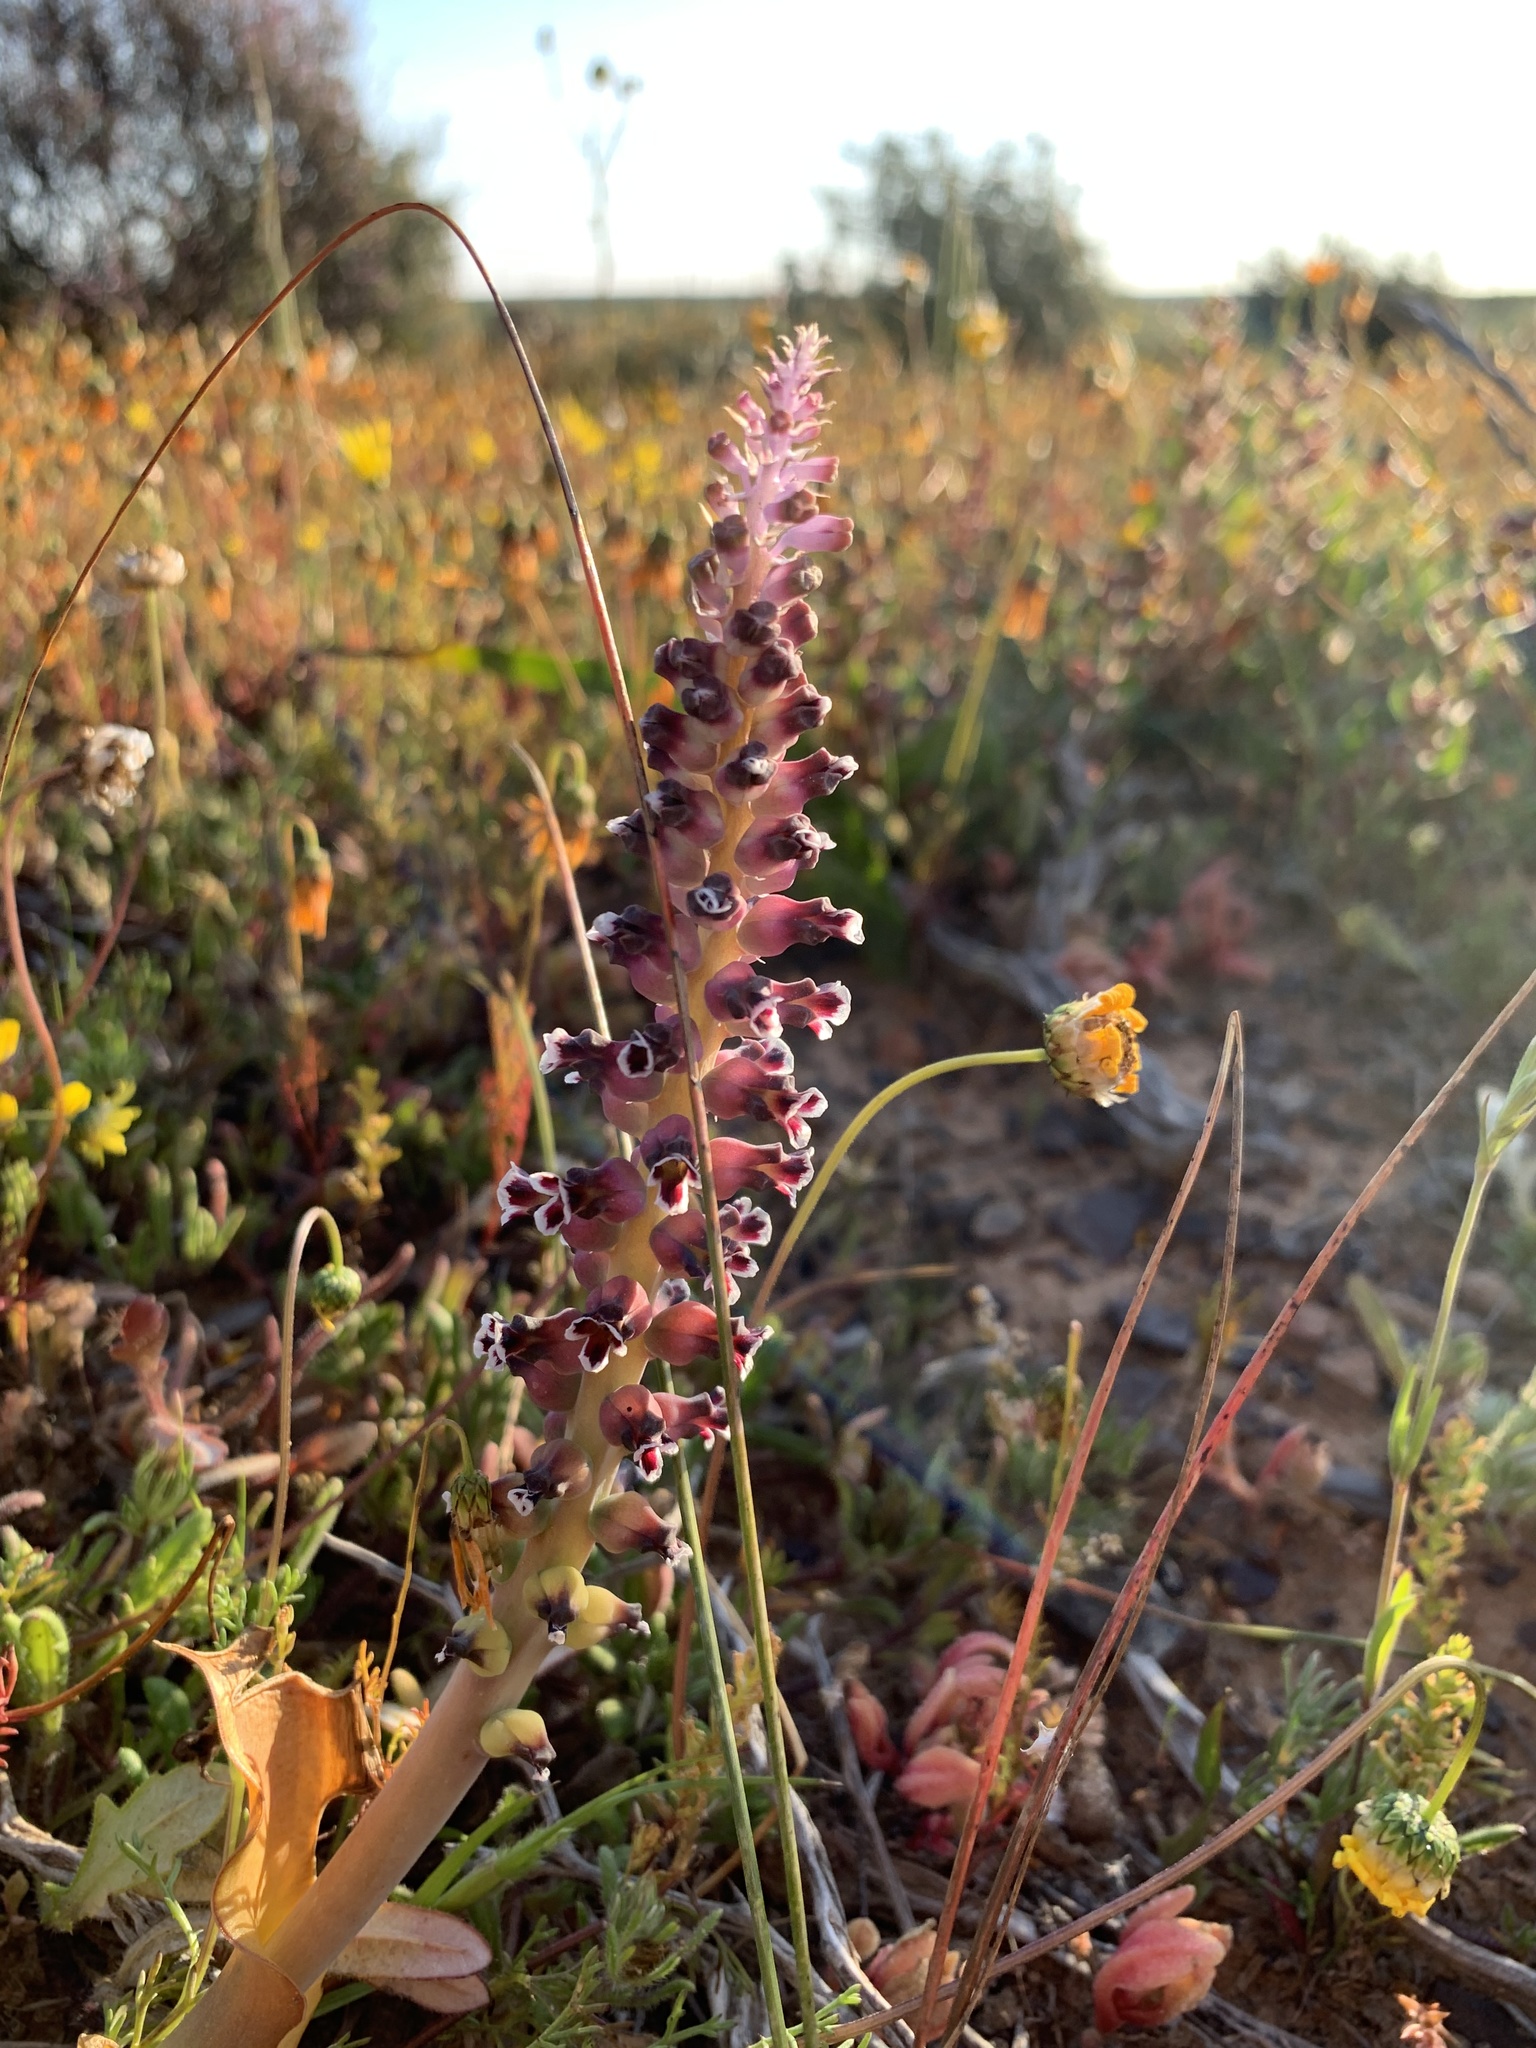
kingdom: Plantae
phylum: Tracheophyta
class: Liliopsida
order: Asparagales
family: Asparagaceae
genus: Lachenalia
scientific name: Lachenalia suaveolens
